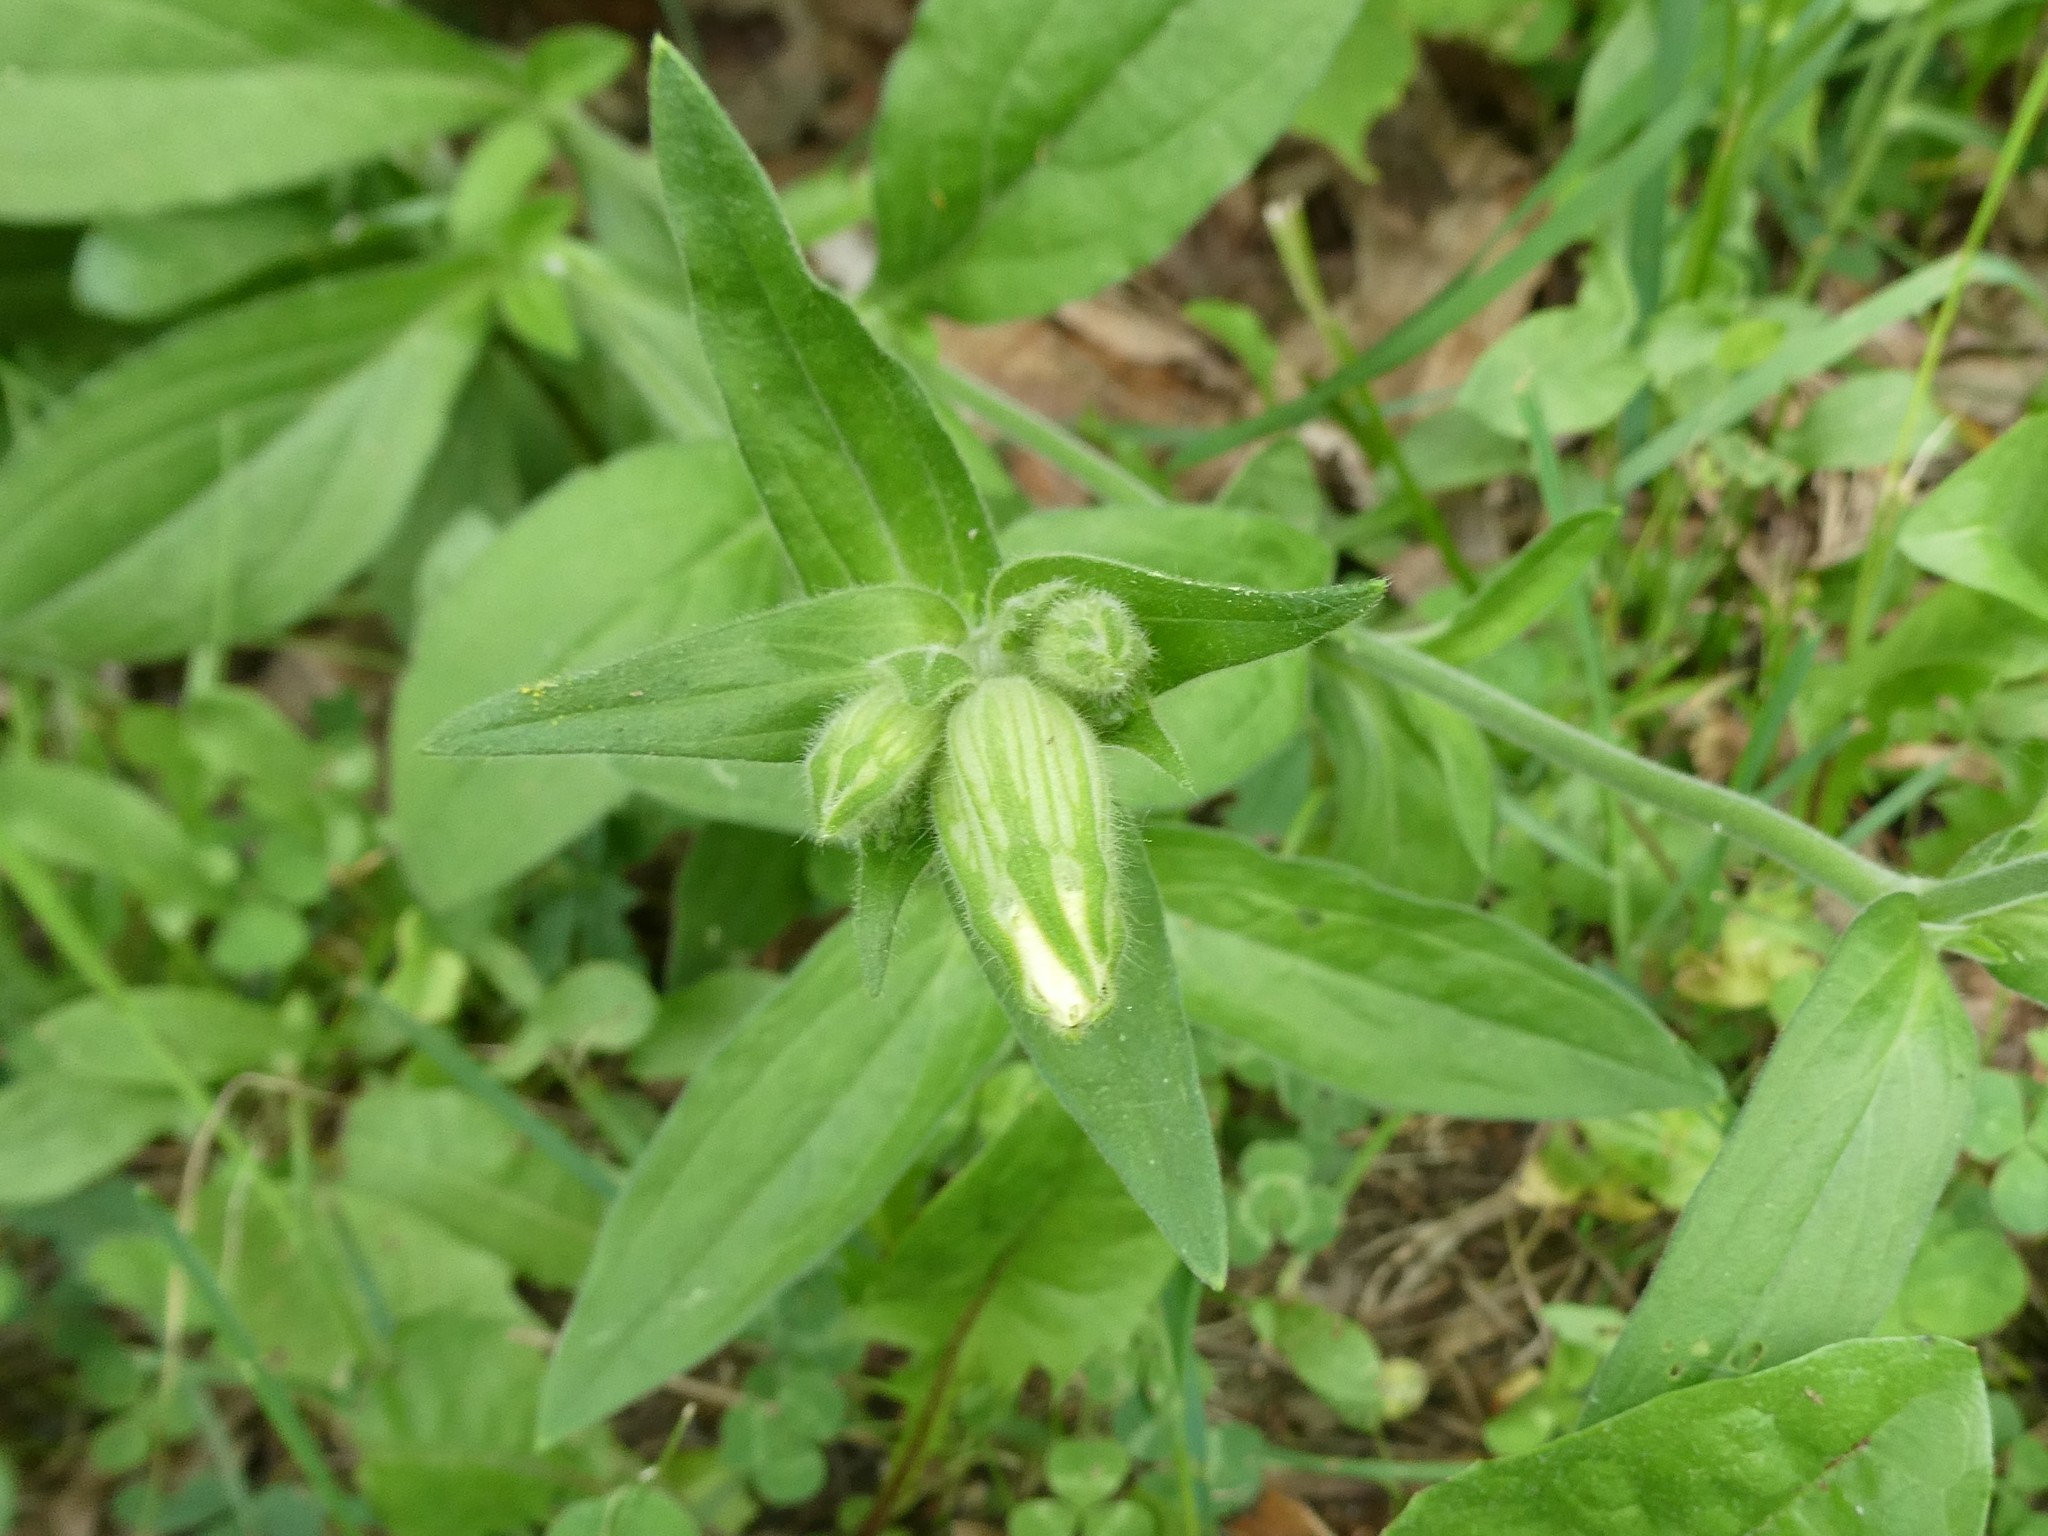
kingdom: Plantae
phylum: Tracheophyta
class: Magnoliopsida
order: Caryophyllales
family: Caryophyllaceae
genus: Silene
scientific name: Silene latifolia
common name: White campion
